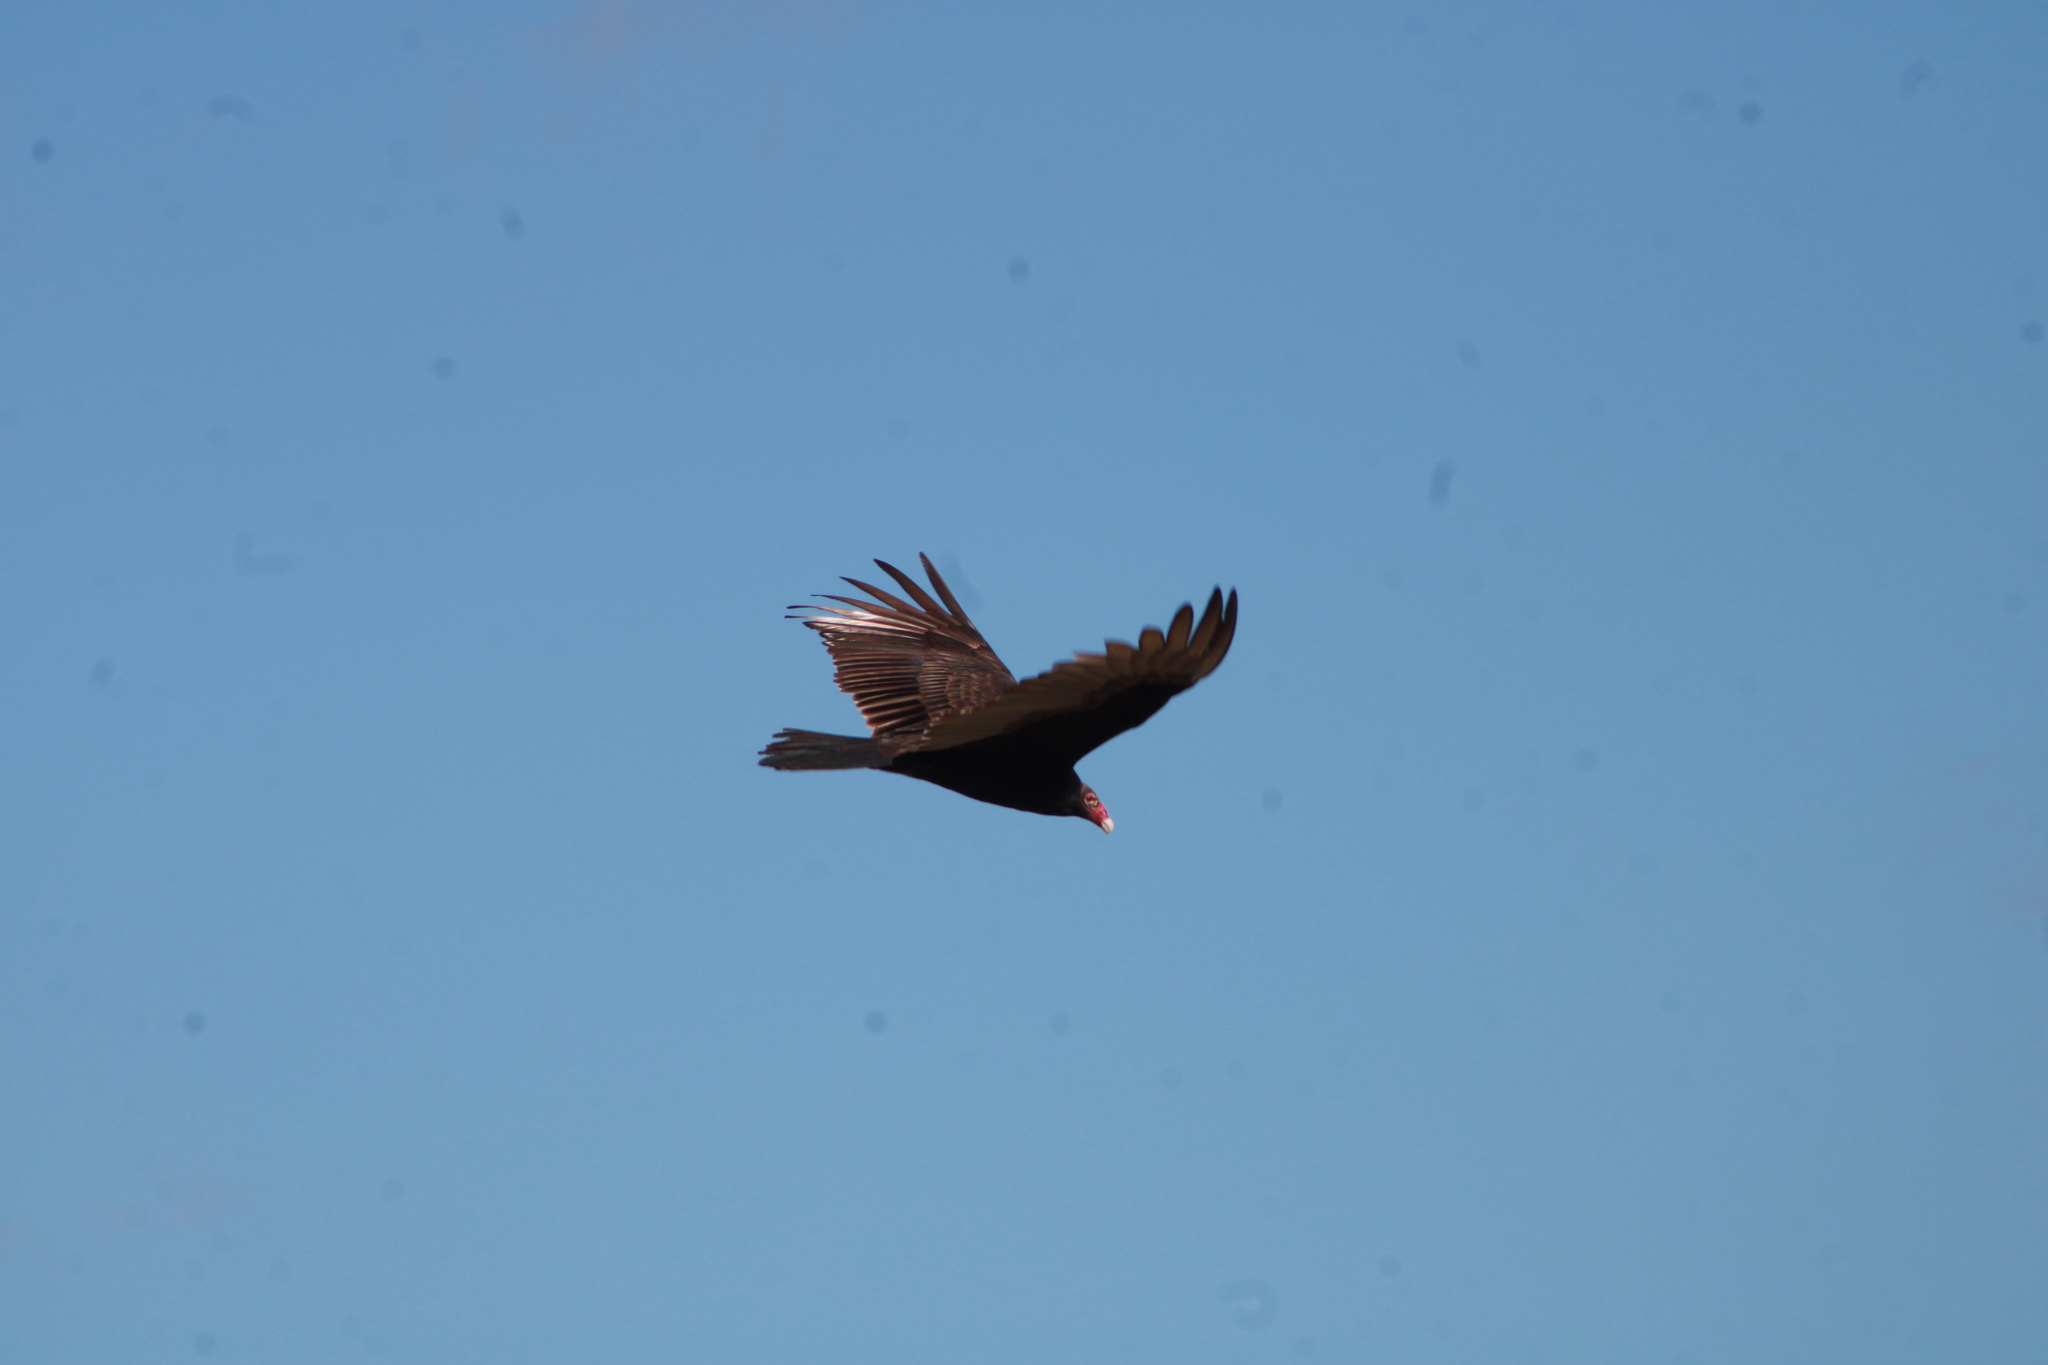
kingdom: Animalia
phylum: Chordata
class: Aves
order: Accipitriformes
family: Cathartidae
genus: Cathartes
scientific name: Cathartes aura
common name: Turkey vulture
